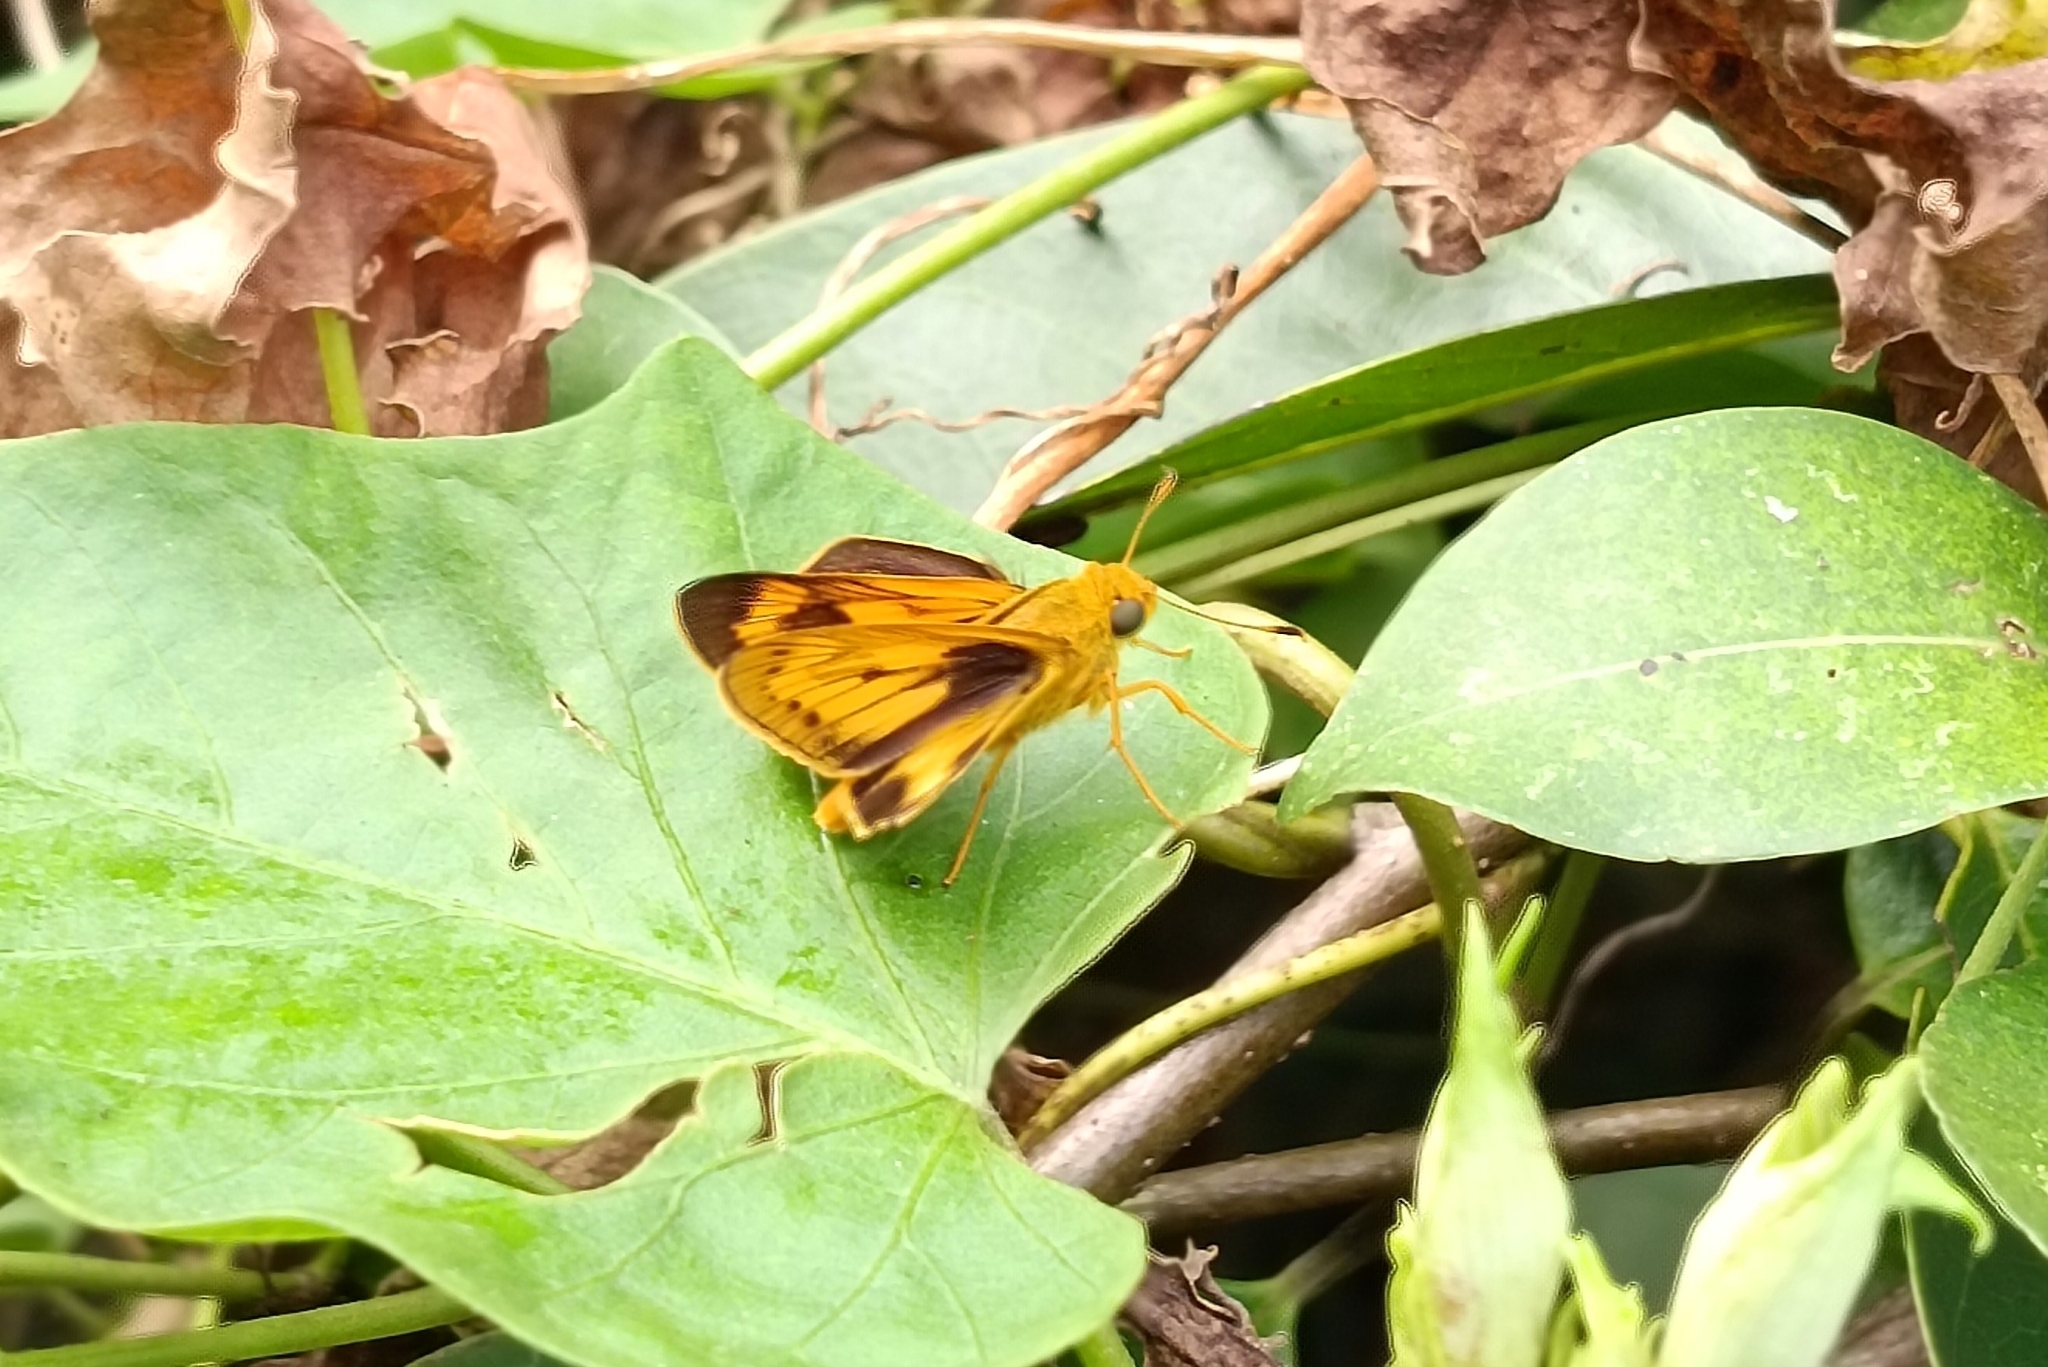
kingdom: Animalia
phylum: Arthropoda
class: Insecta
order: Lepidoptera
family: Hesperiidae
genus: Cephrenes
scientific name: Cephrenes
